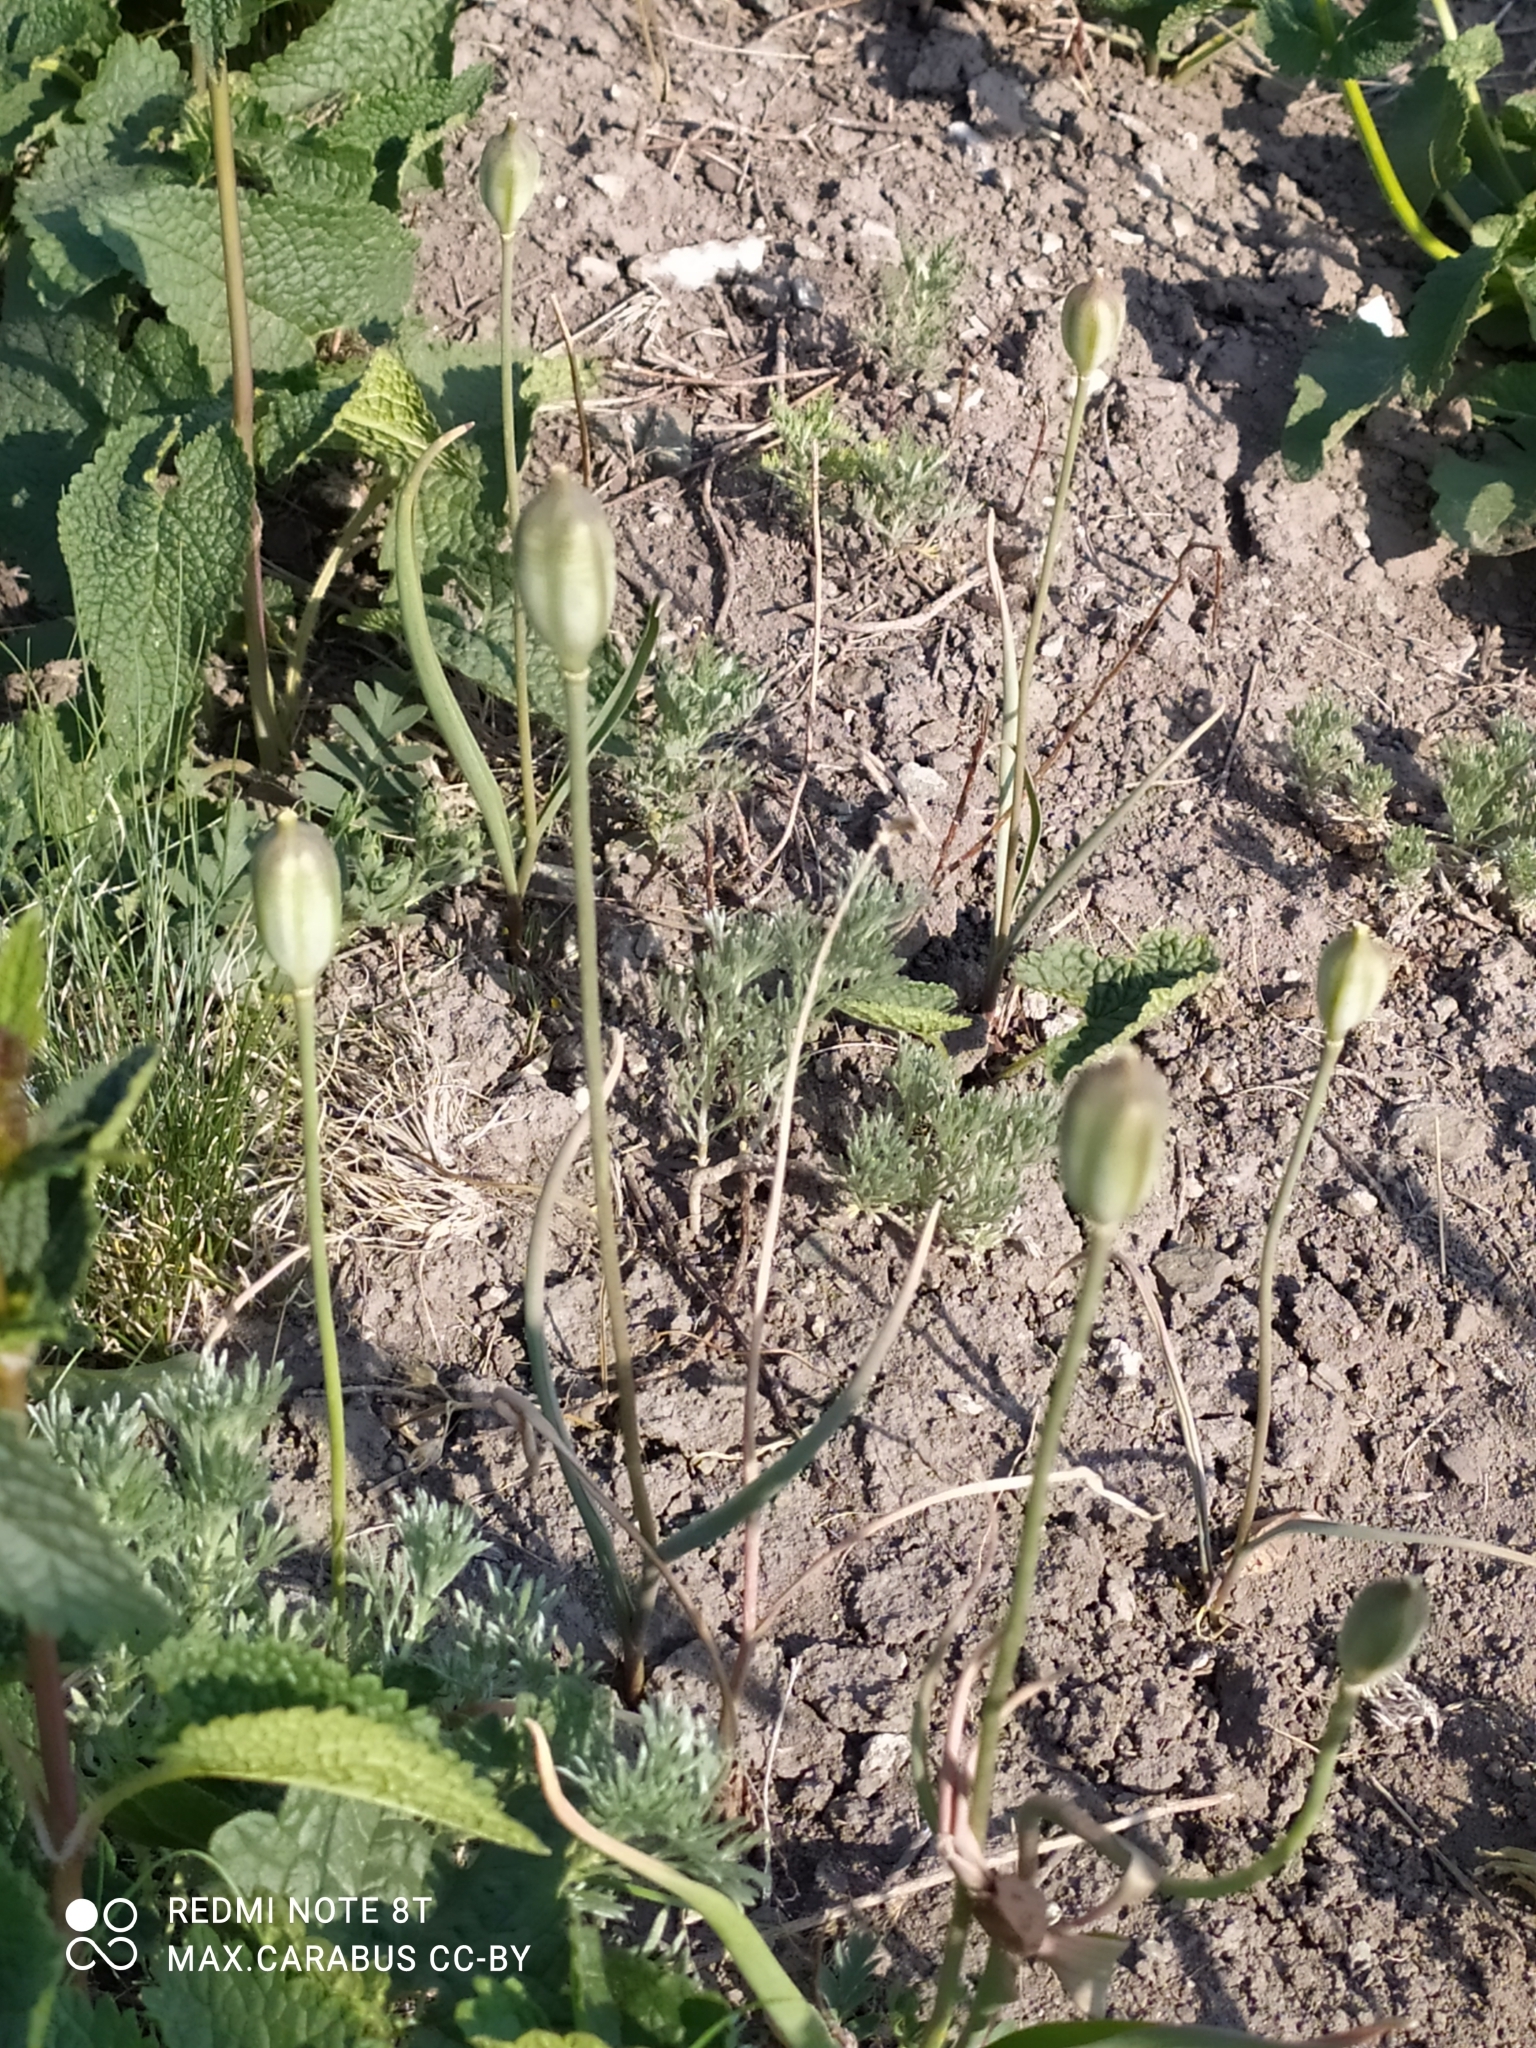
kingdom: Plantae
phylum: Tracheophyta
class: Liliopsida
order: Liliales
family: Liliaceae
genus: Tulipa
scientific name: Tulipa patens
